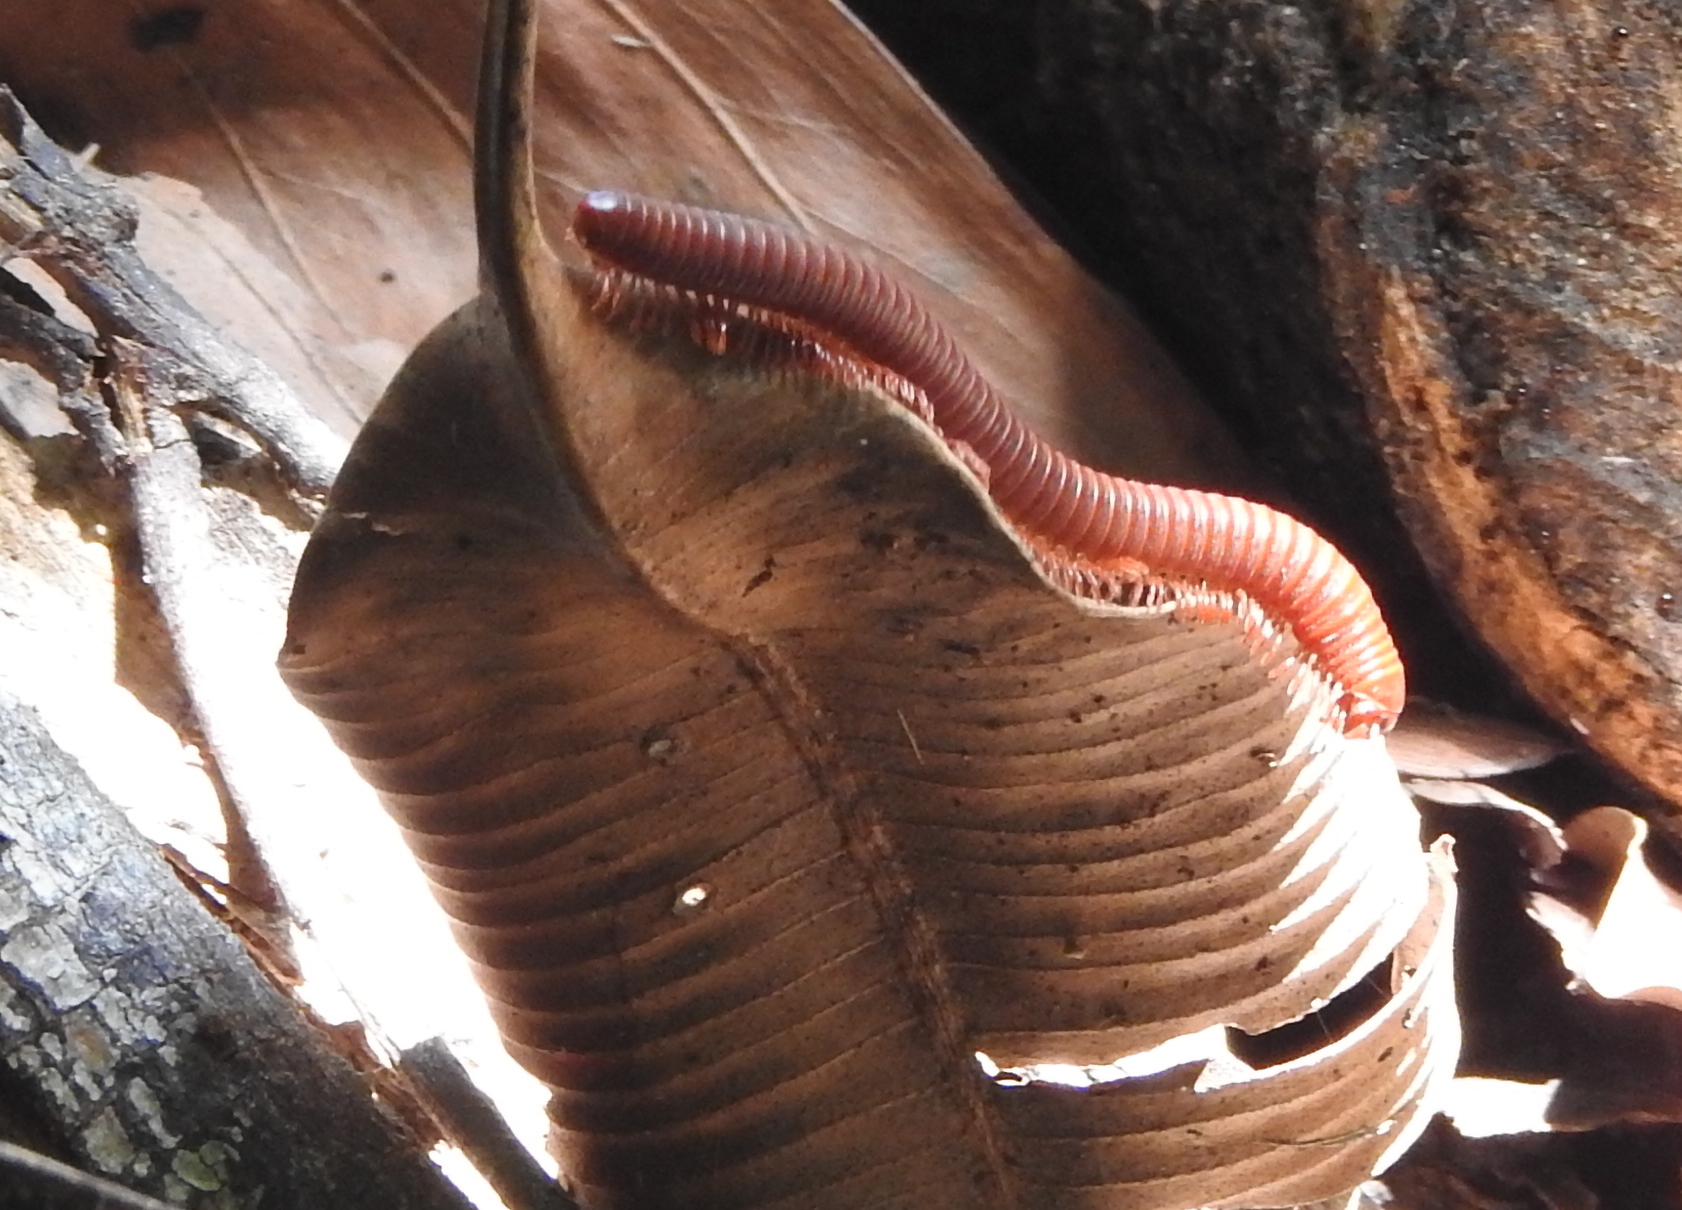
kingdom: Animalia
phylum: Arthropoda
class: Diplopoda
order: Spirobolida
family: Pachybolidae
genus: Trigoniulus
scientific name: Trigoniulus corallinus
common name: Millipede
